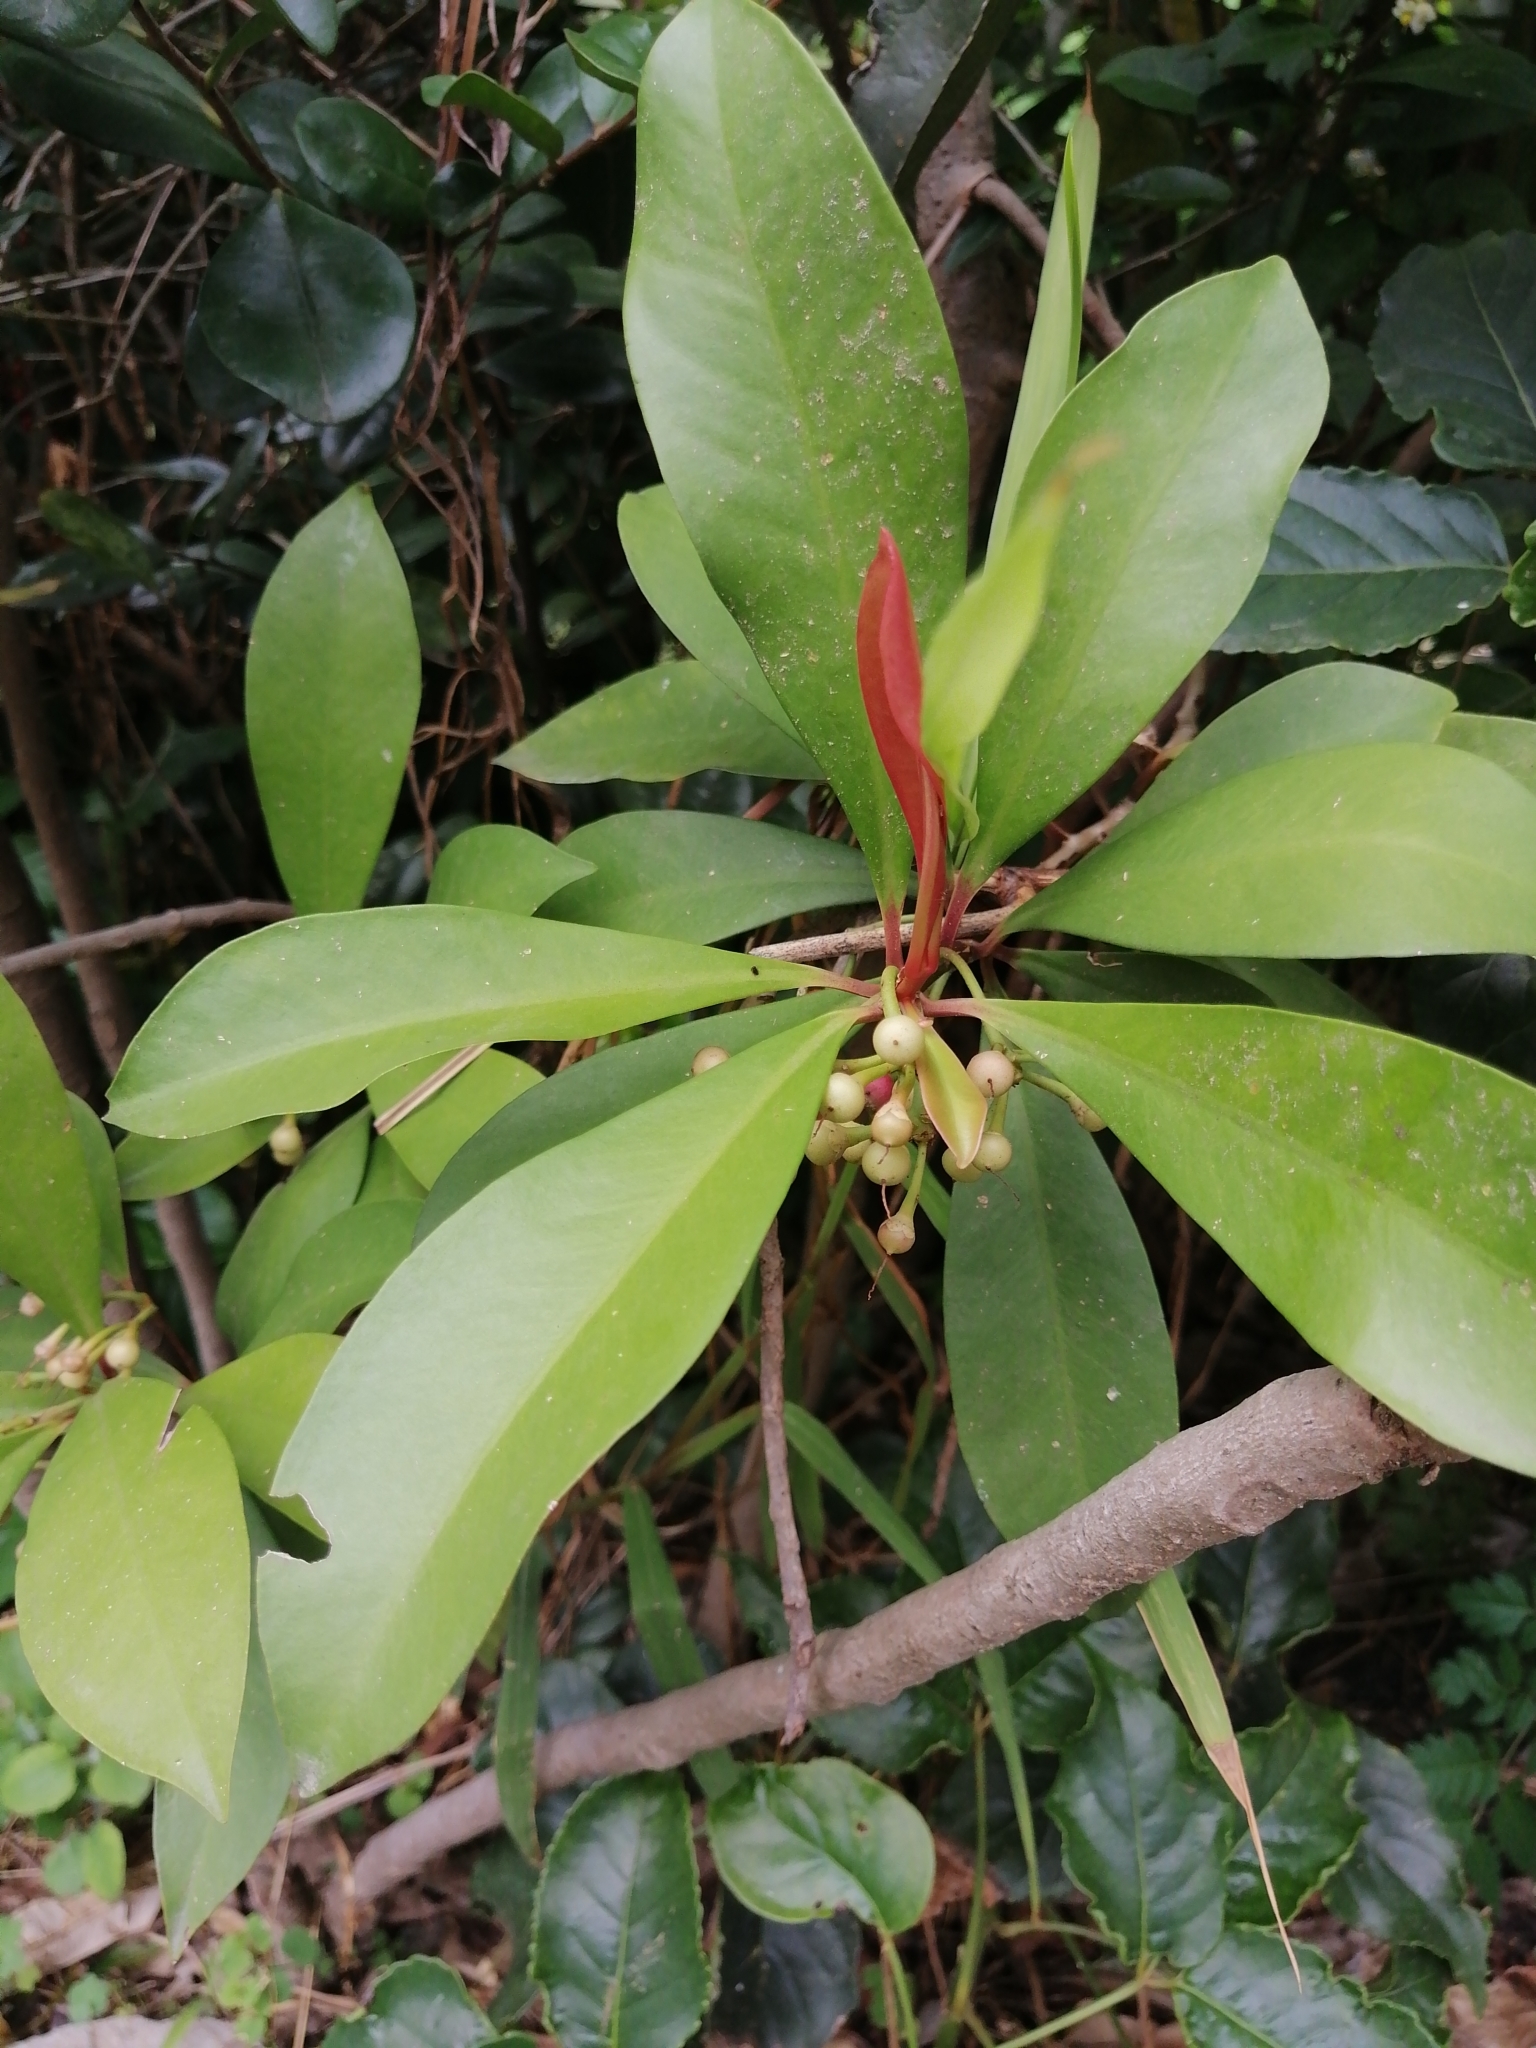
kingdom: Plantae
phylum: Tracheophyta
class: Magnoliopsida
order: Ericales
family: Primulaceae
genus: Ardisia
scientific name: Ardisia elliptica
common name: Shoebutton
